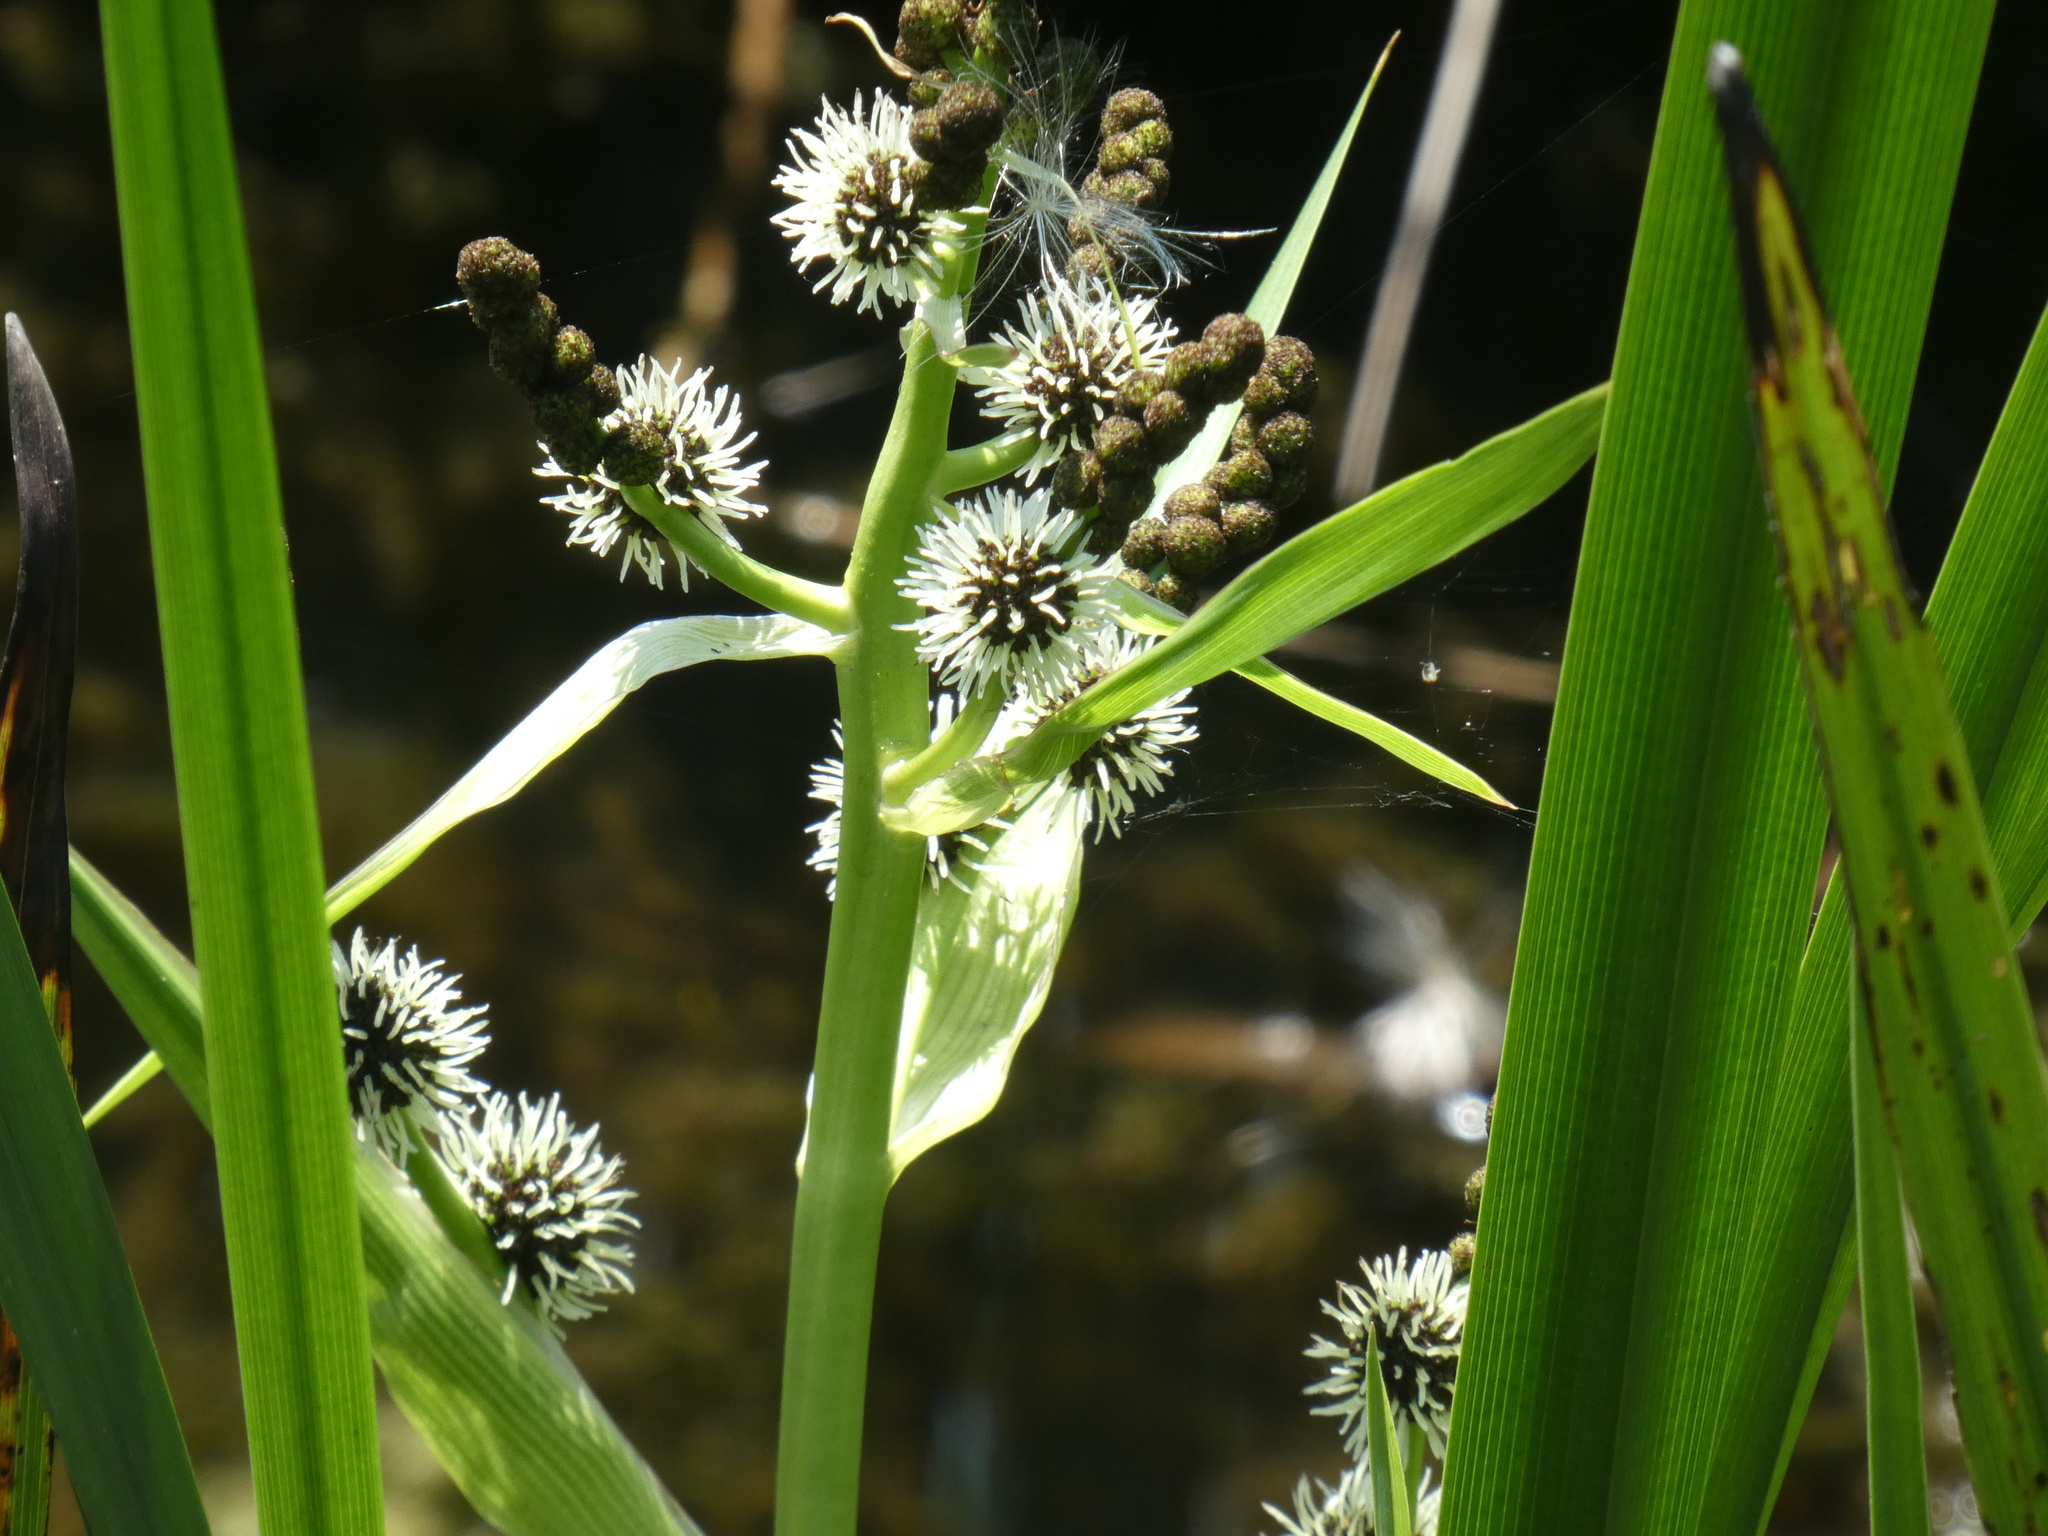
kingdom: Plantae
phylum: Tracheophyta
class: Liliopsida
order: Poales
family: Typhaceae
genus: Sparganium
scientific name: Sparganium erectum
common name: Branched bur-reed
